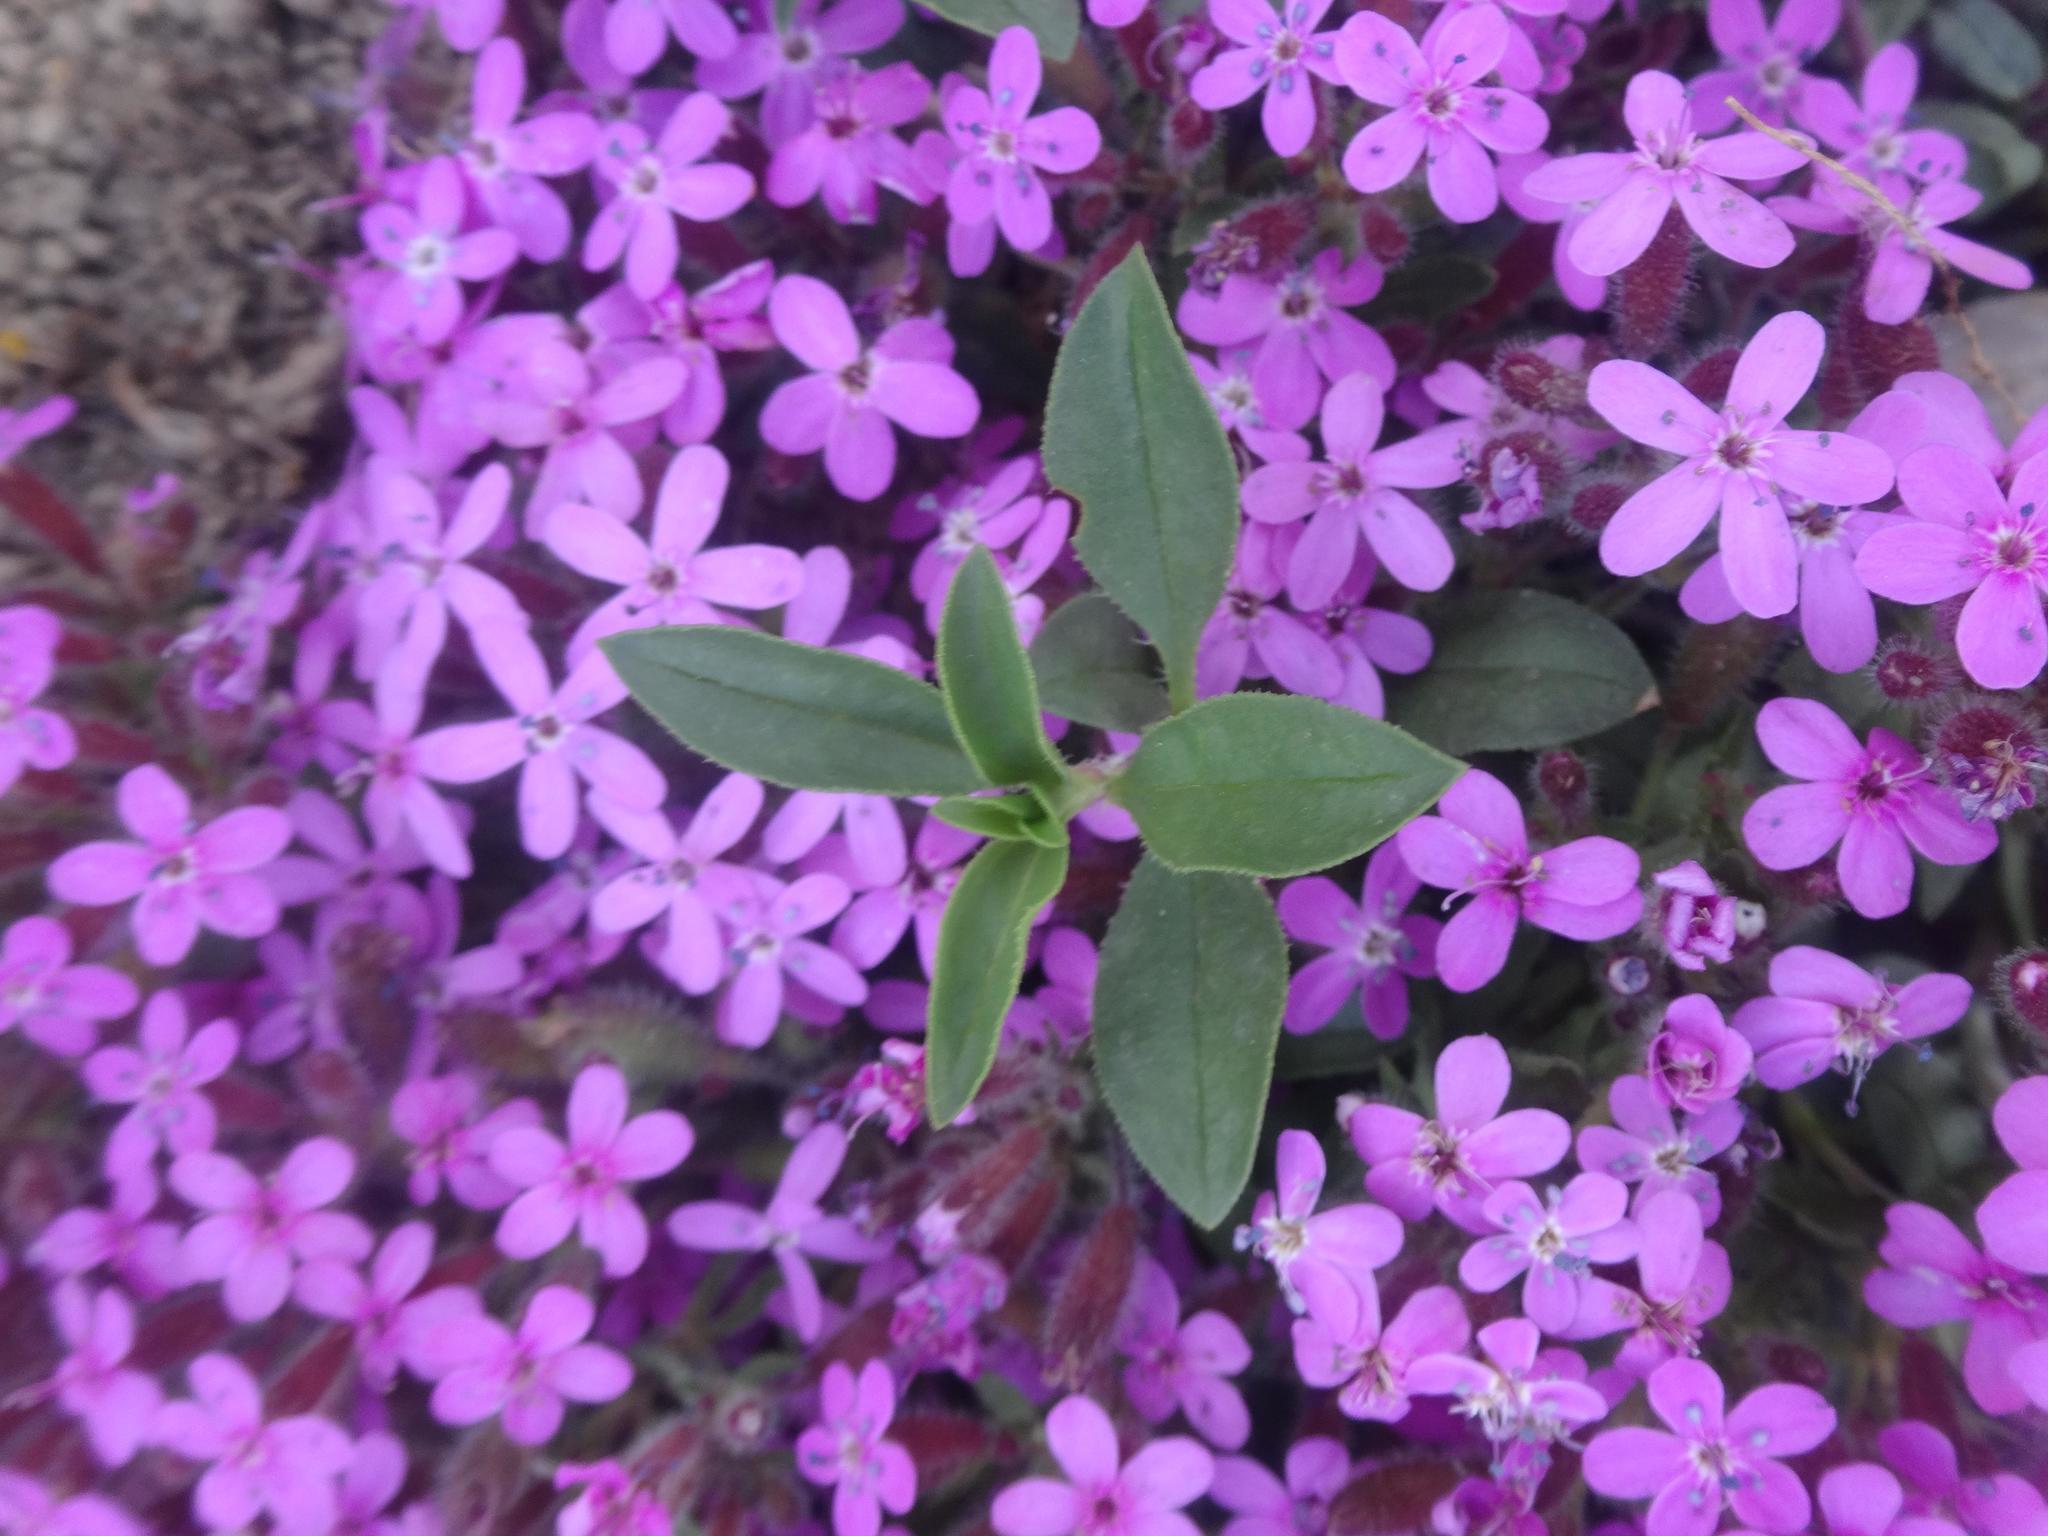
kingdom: Plantae
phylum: Tracheophyta
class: Magnoliopsida
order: Caryophyllales
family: Caryophyllaceae
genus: Saponaria
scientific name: Saponaria ocymoides
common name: Rock soapwort
